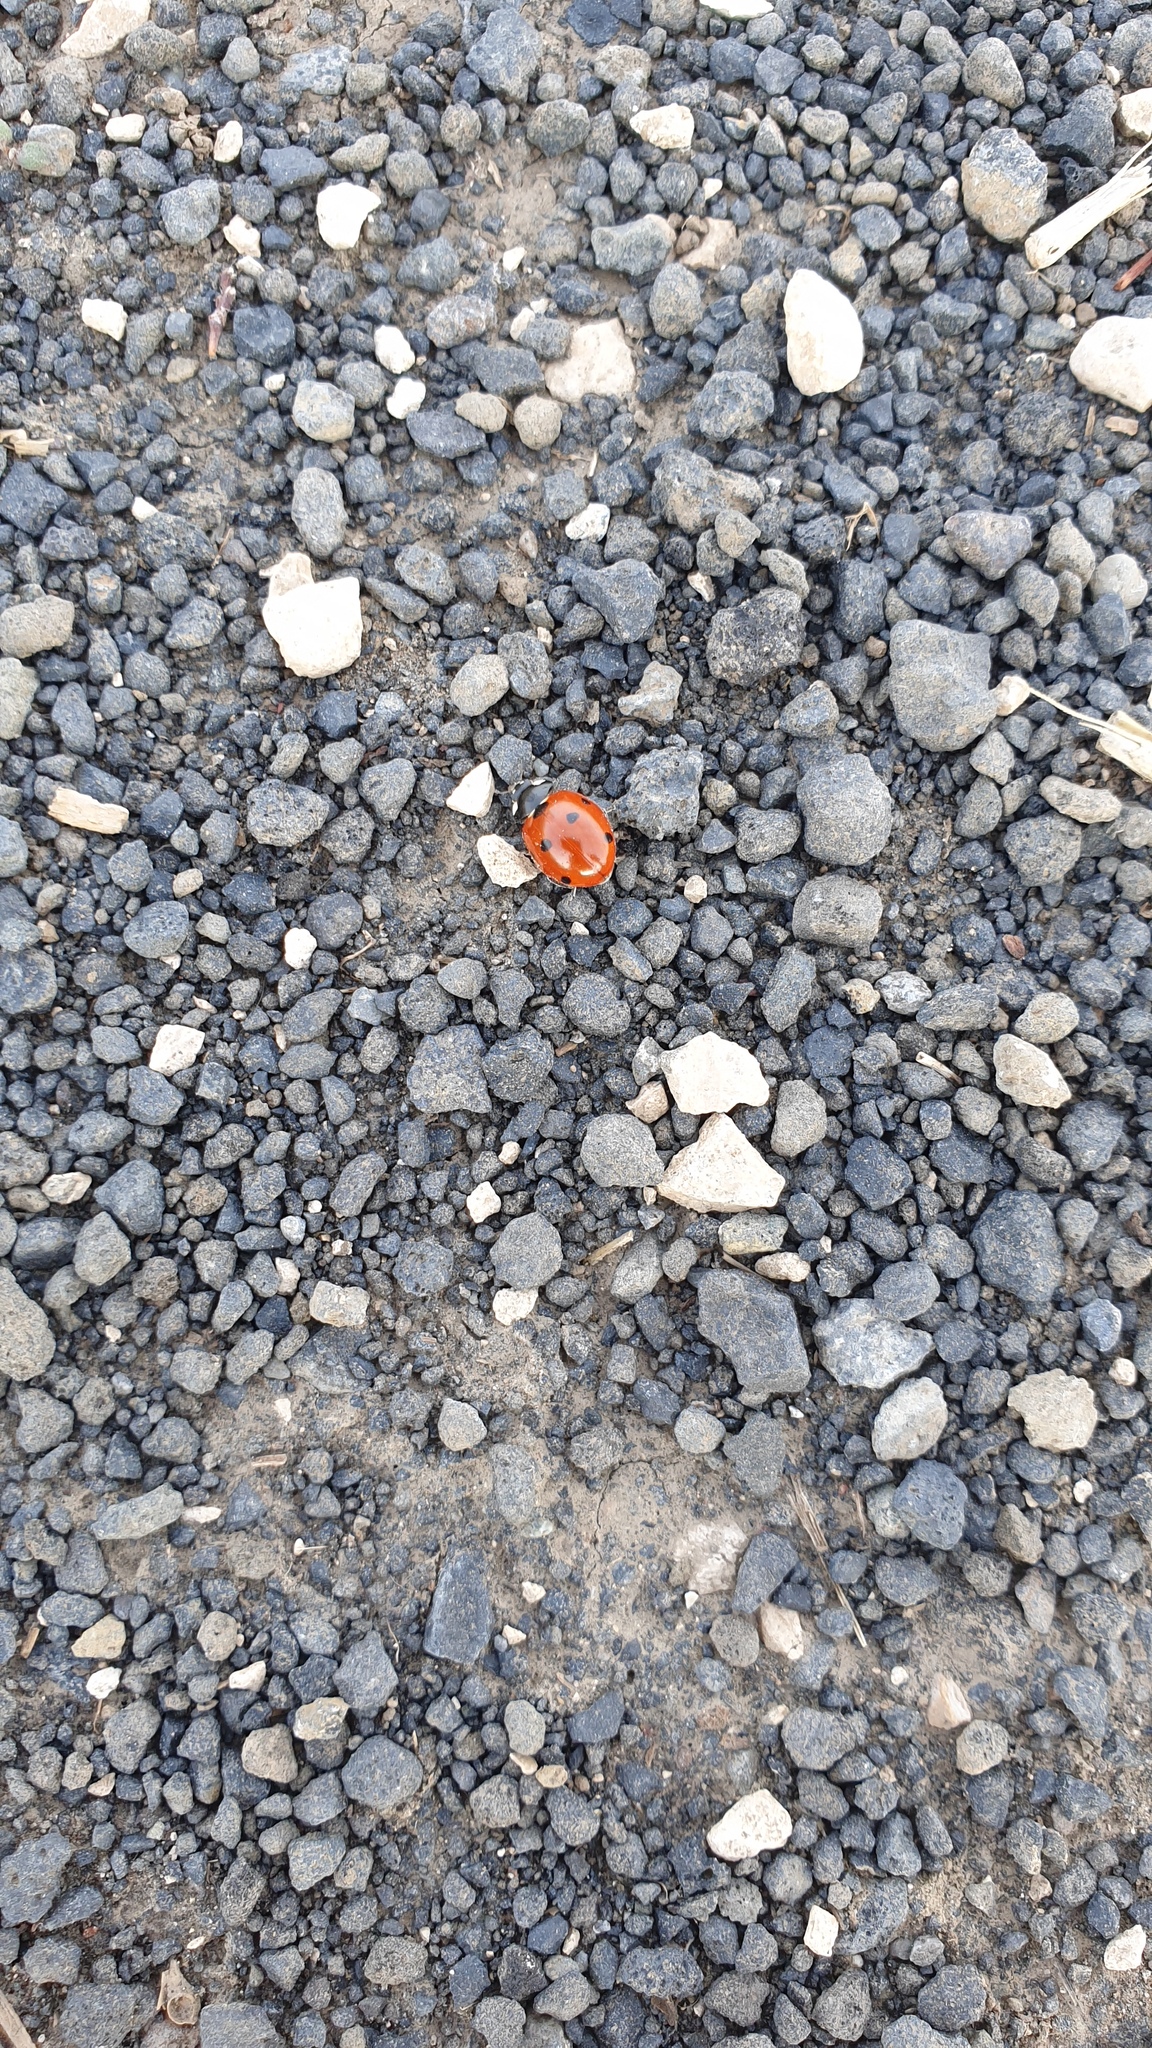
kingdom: Animalia
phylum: Arthropoda
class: Insecta
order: Coleoptera
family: Coccinellidae
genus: Coccinella
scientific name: Coccinella septempunctata
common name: Sevenspotted lady beetle
